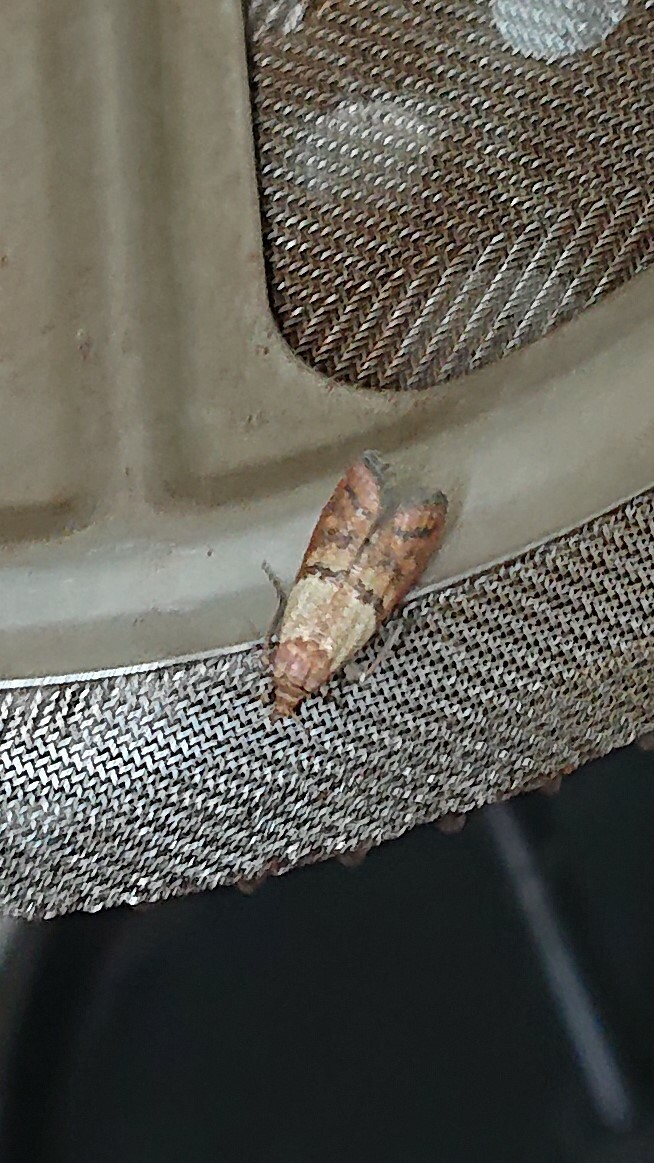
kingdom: Animalia
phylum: Arthropoda
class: Insecta
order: Lepidoptera
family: Pyralidae
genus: Plodia
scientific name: Plodia interpunctella
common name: Indian meal moth
